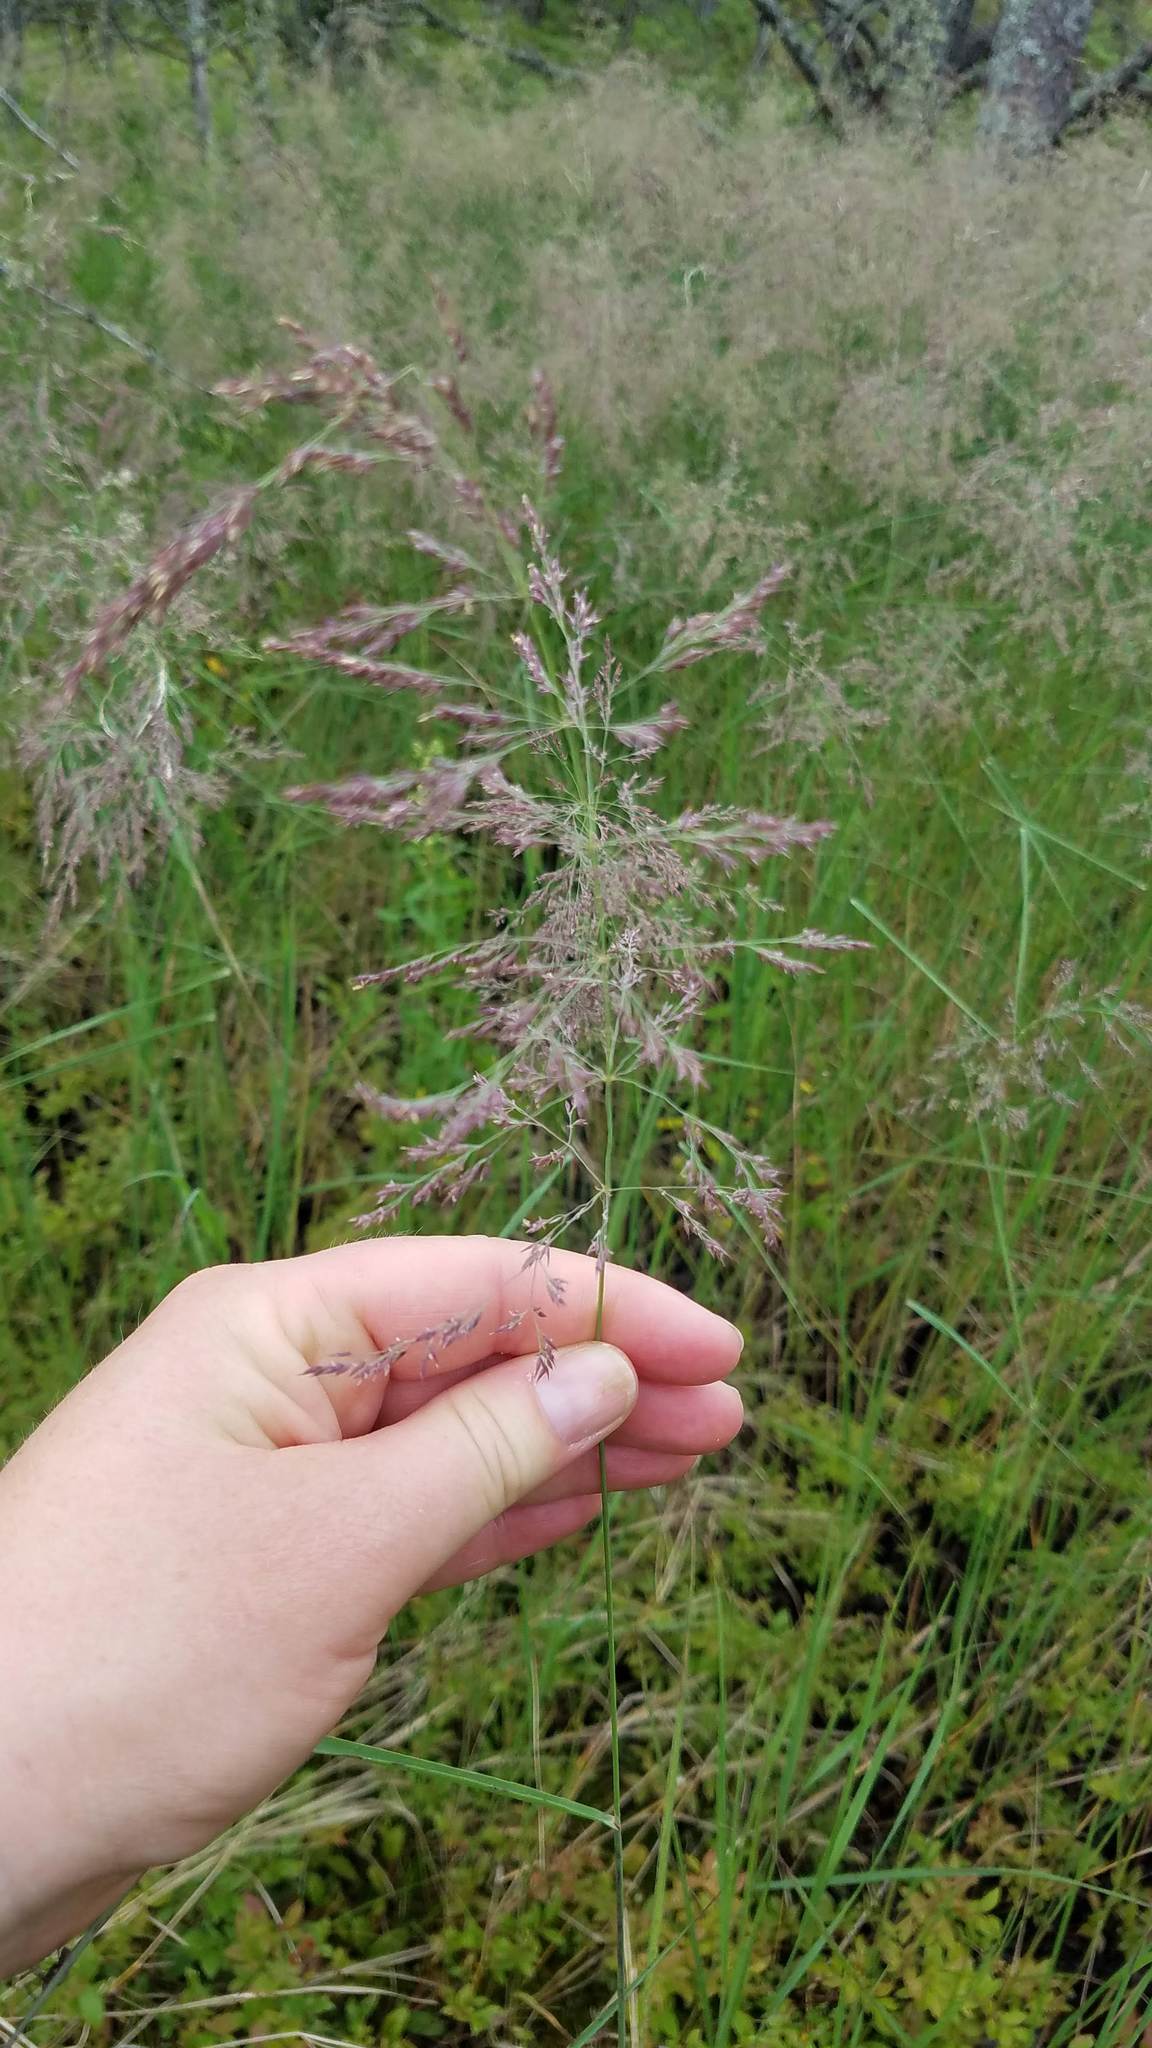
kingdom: Plantae
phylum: Tracheophyta
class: Liliopsida
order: Poales
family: Poaceae
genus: Calamagrostis
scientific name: Calamagrostis canadensis
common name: Canada bluejoint
